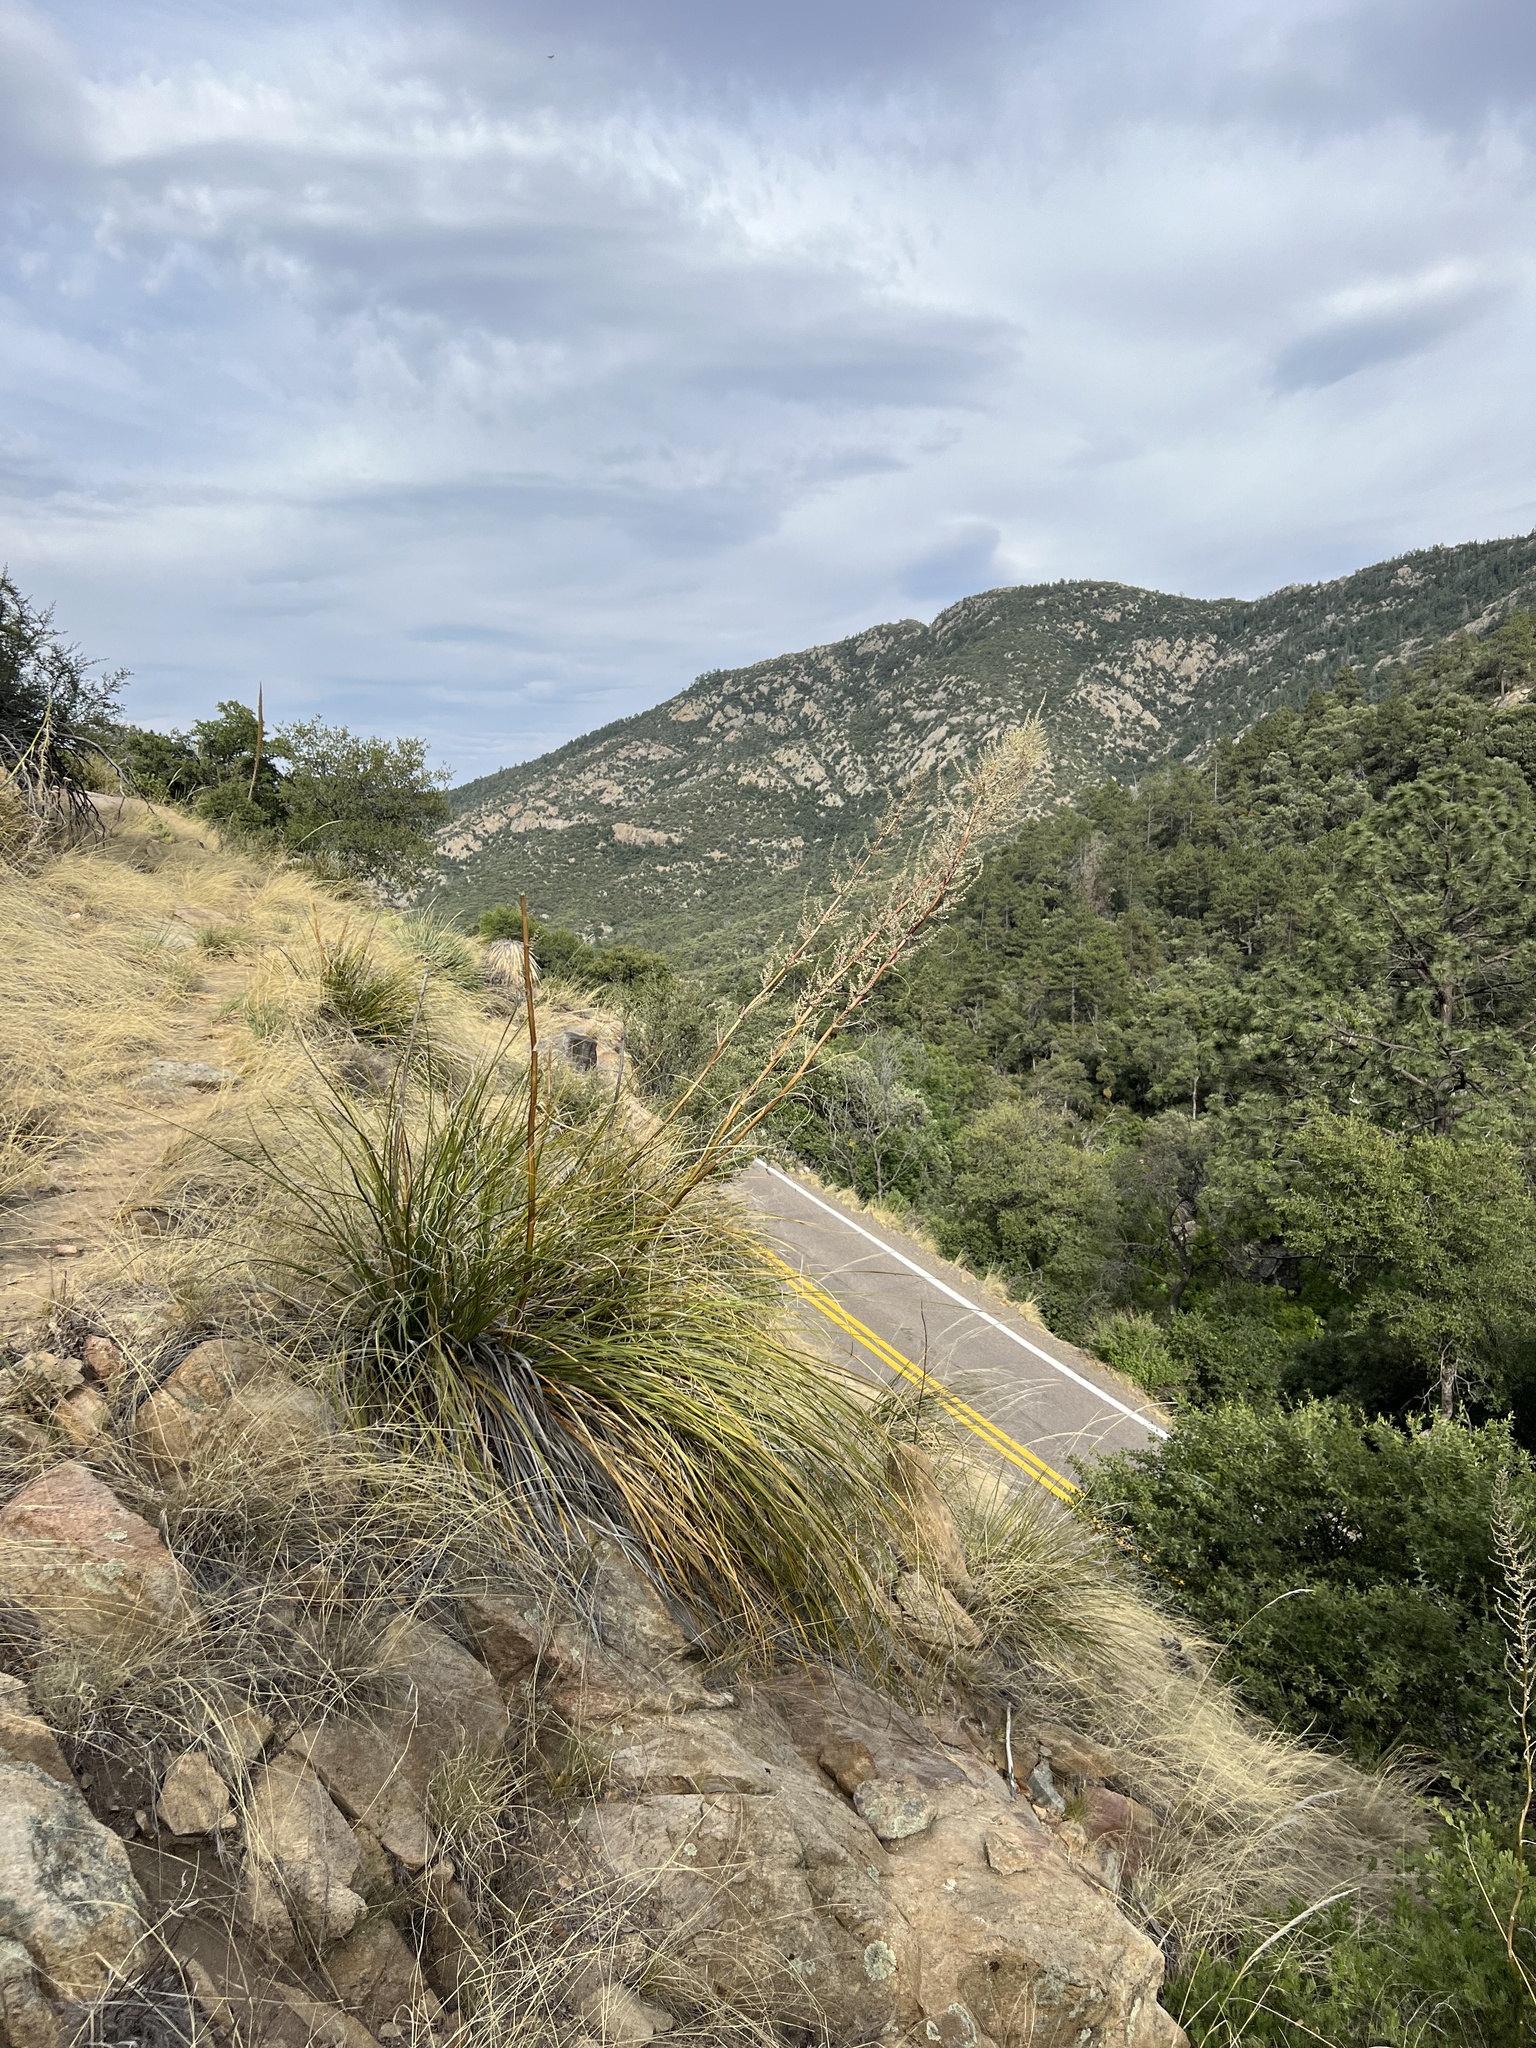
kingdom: Plantae
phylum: Tracheophyta
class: Liliopsida
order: Asparagales
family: Asparagaceae
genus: Nolina
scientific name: Nolina microcarpa
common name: Bear-grass
